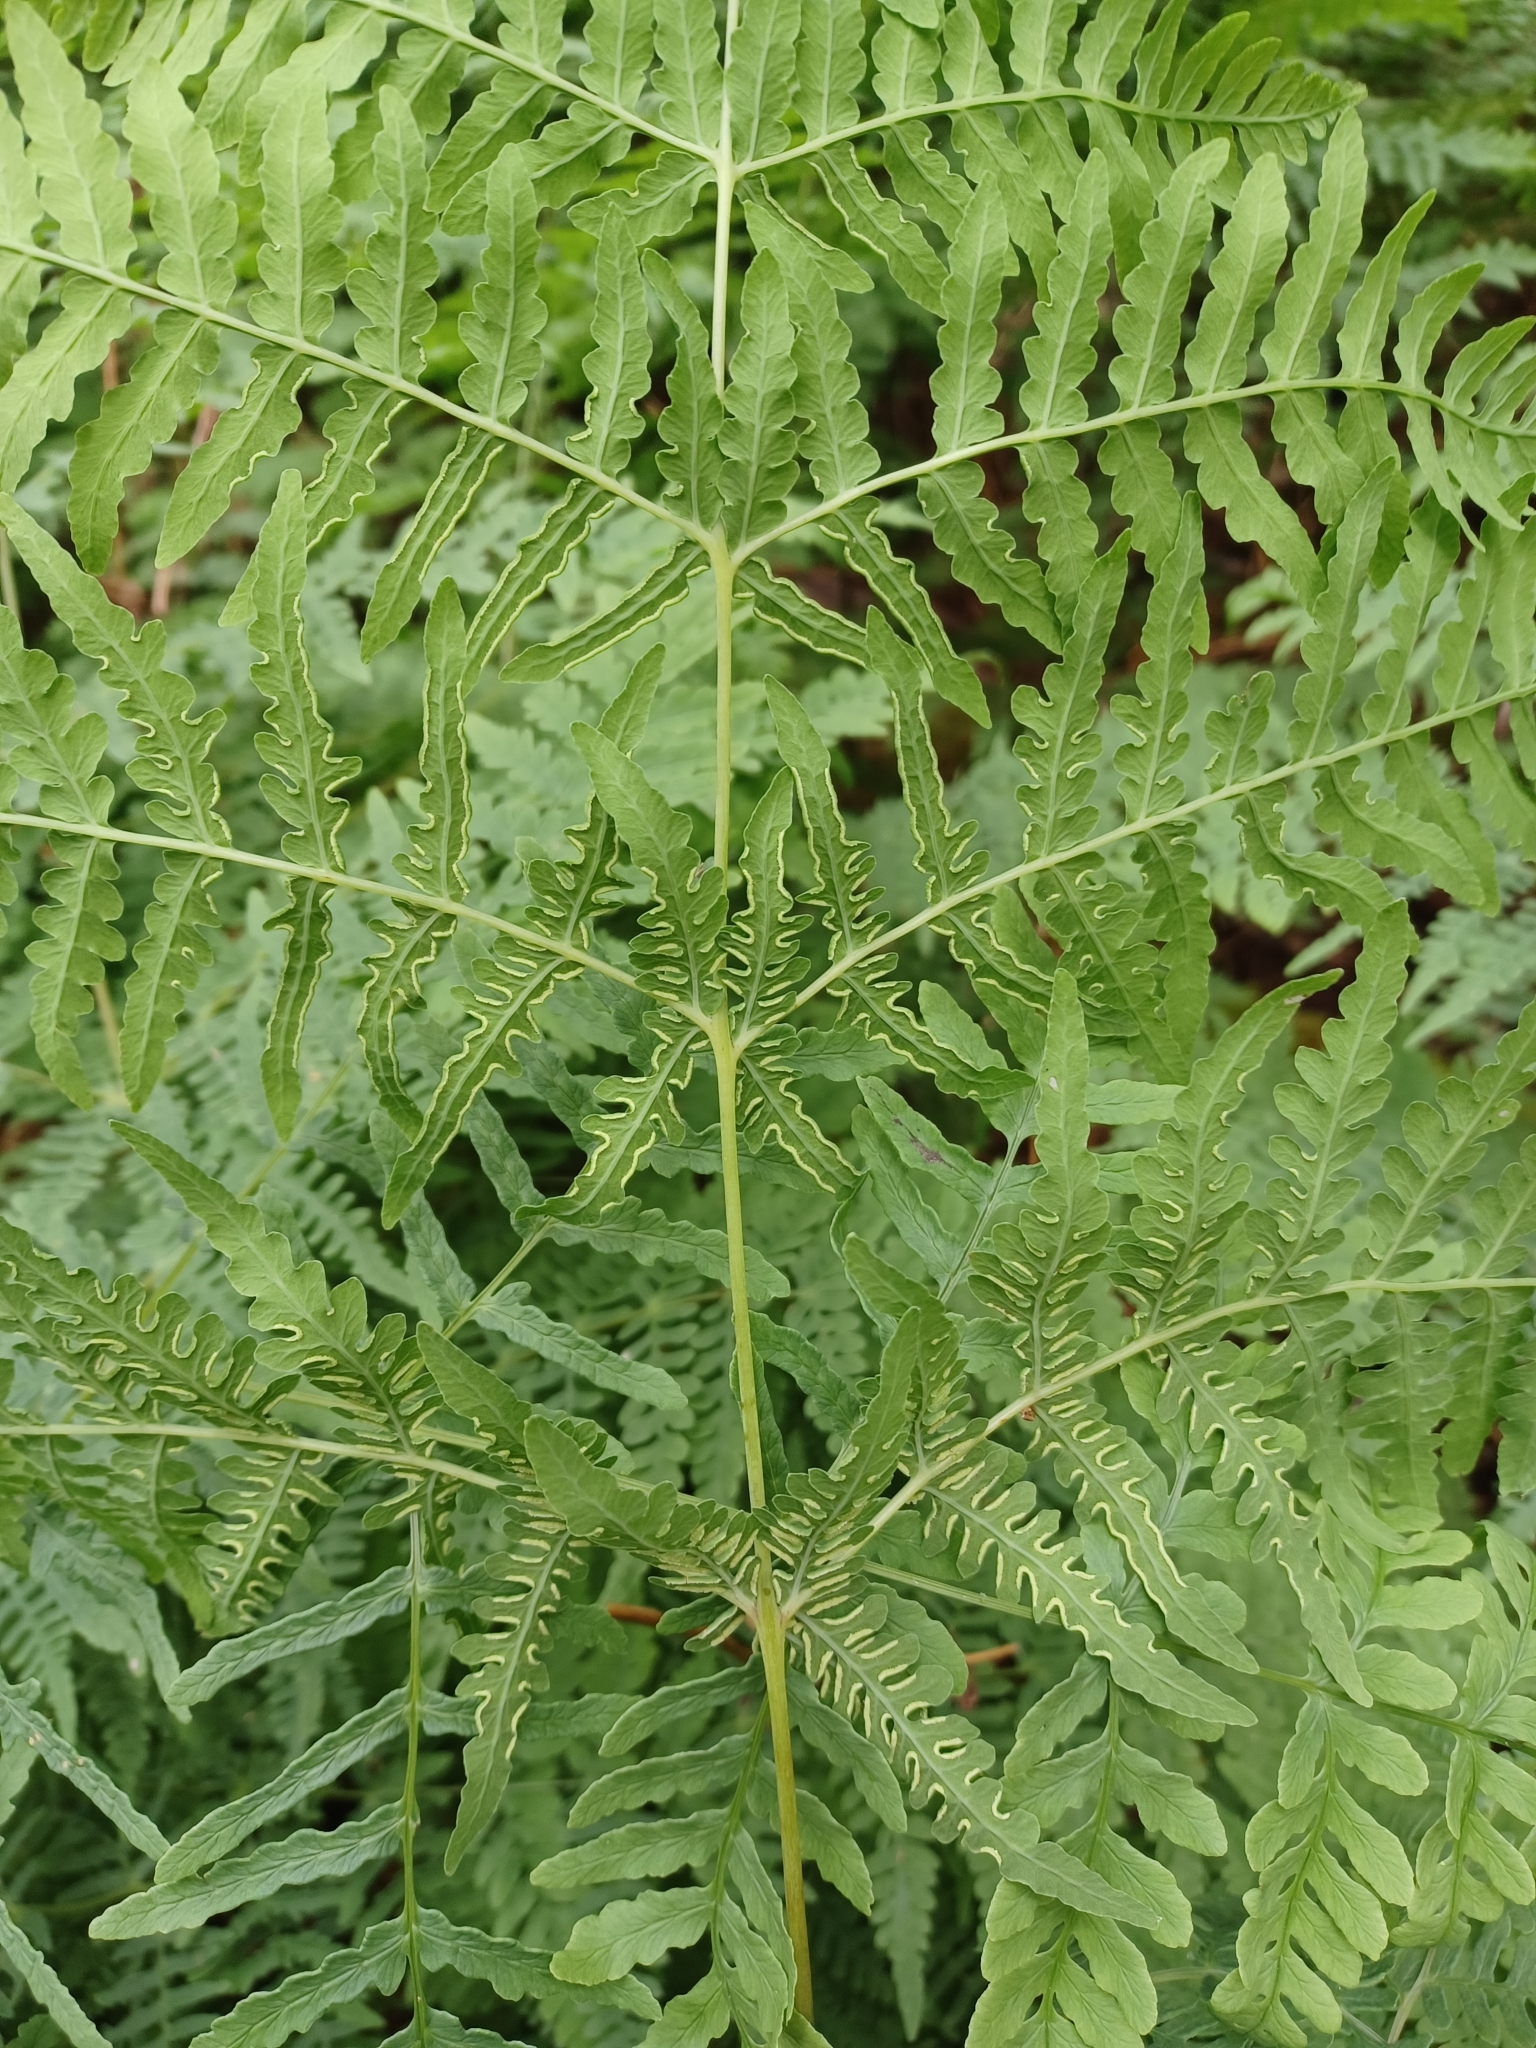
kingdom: Plantae
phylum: Tracheophyta
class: Polypodiopsida
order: Polypodiales
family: Dennstaedtiaceae
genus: Histiopteris
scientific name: Histiopteris incisa
